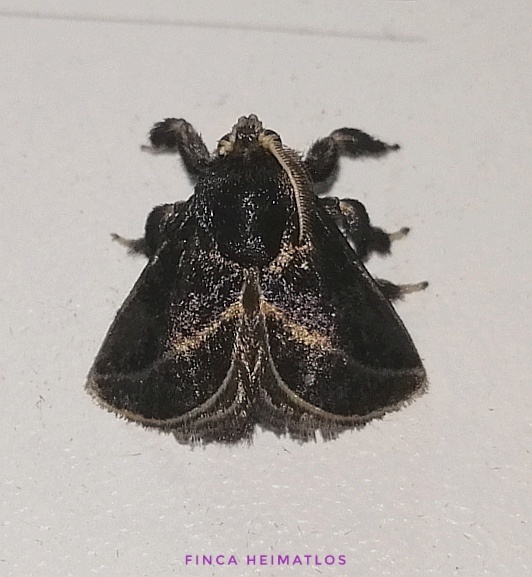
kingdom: Animalia
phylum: Arthropoda
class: Insecta
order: Lepidoptera
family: Limacodidae
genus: Epiperola
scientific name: Epiperola vaferella
